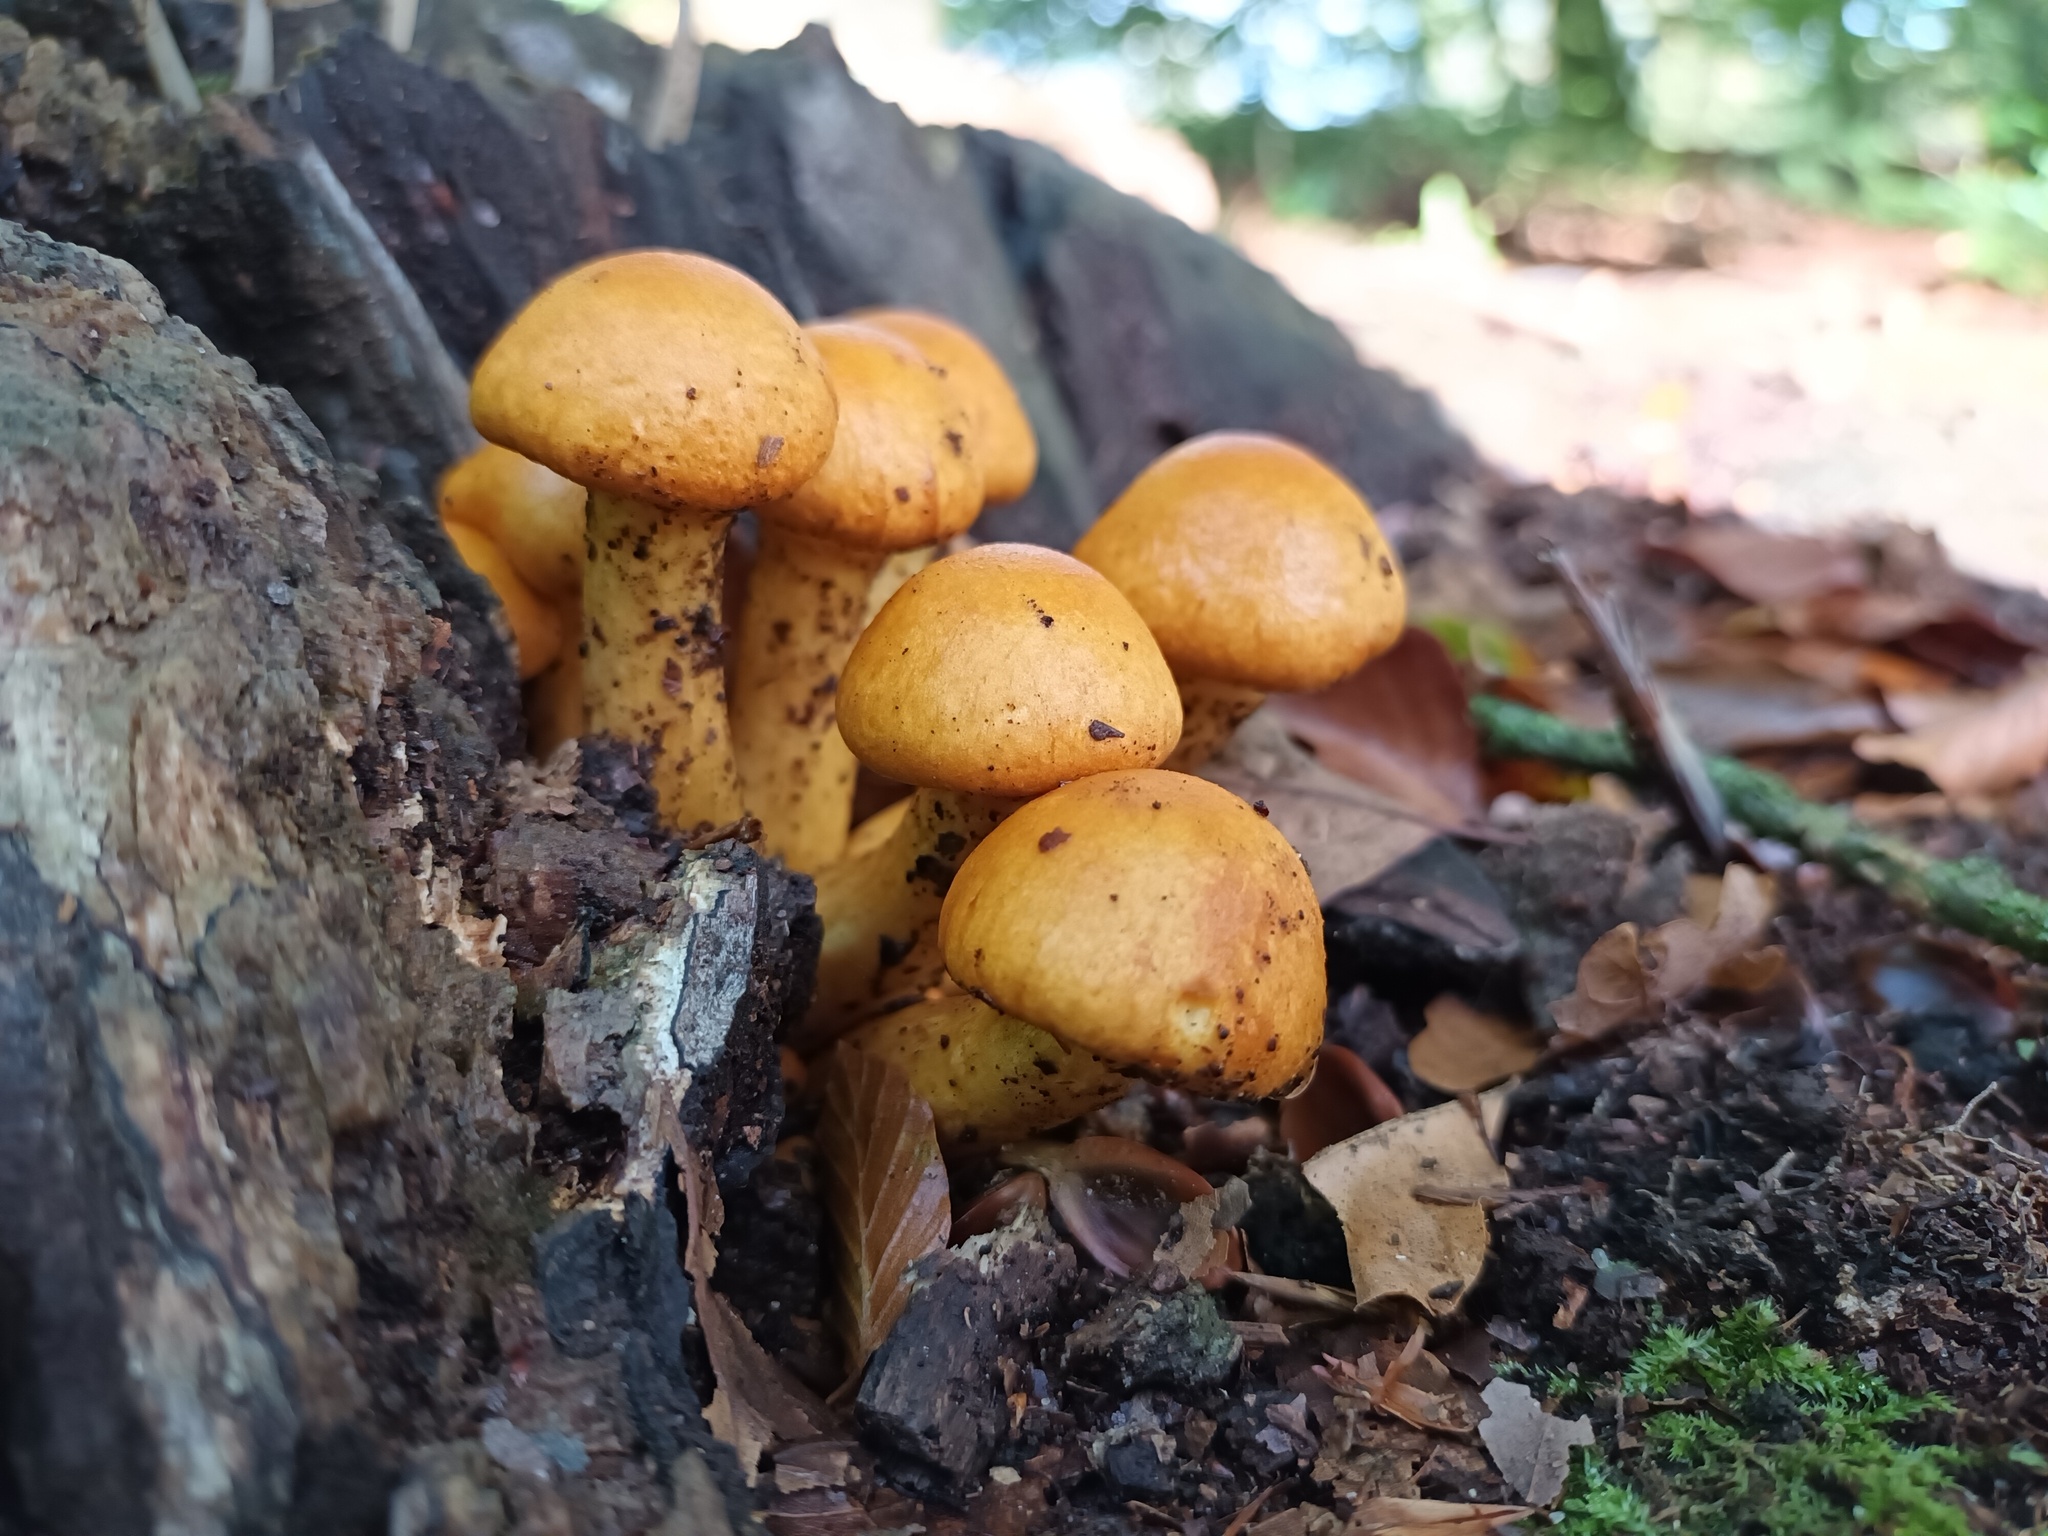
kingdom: Fungi
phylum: Basidiomycota
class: Agaricomycetes
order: Agaricales
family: Hymenogastraceae
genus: Gymnopilus
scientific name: Gymnopilus junonius
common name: Spectacular rustgill
